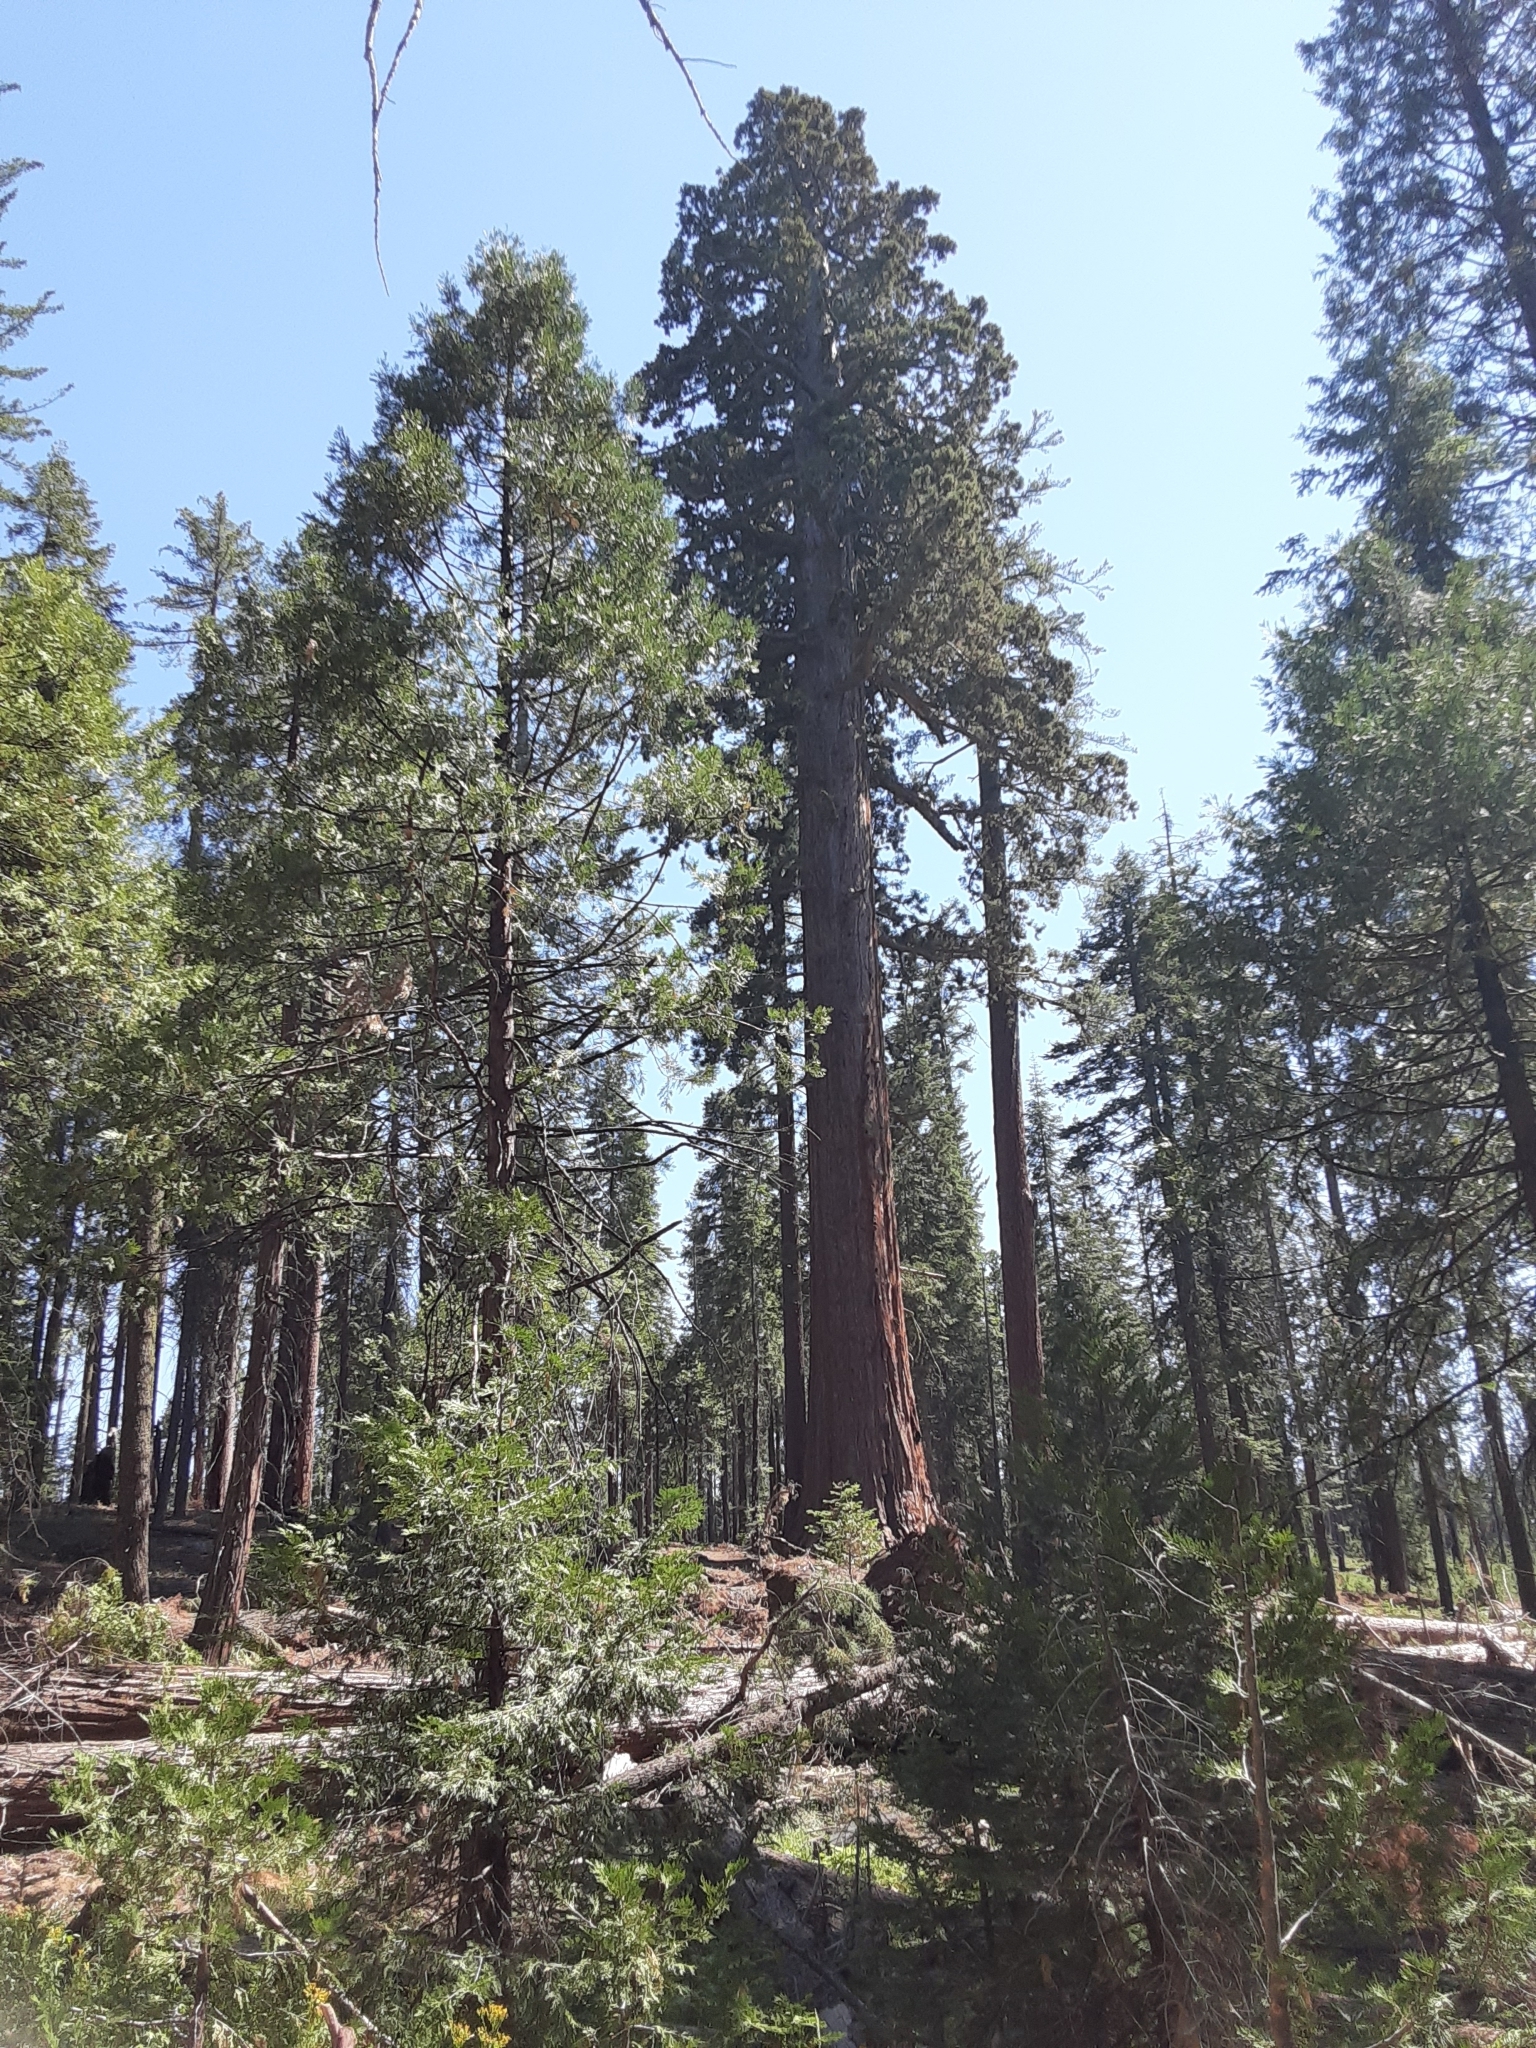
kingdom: Plantae
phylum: Tracheophyta
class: Pinopsida
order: Pinales
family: Cupressaceae
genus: Sequoiadendron
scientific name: Sequoiadendron giganteum
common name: Wellingtonia
